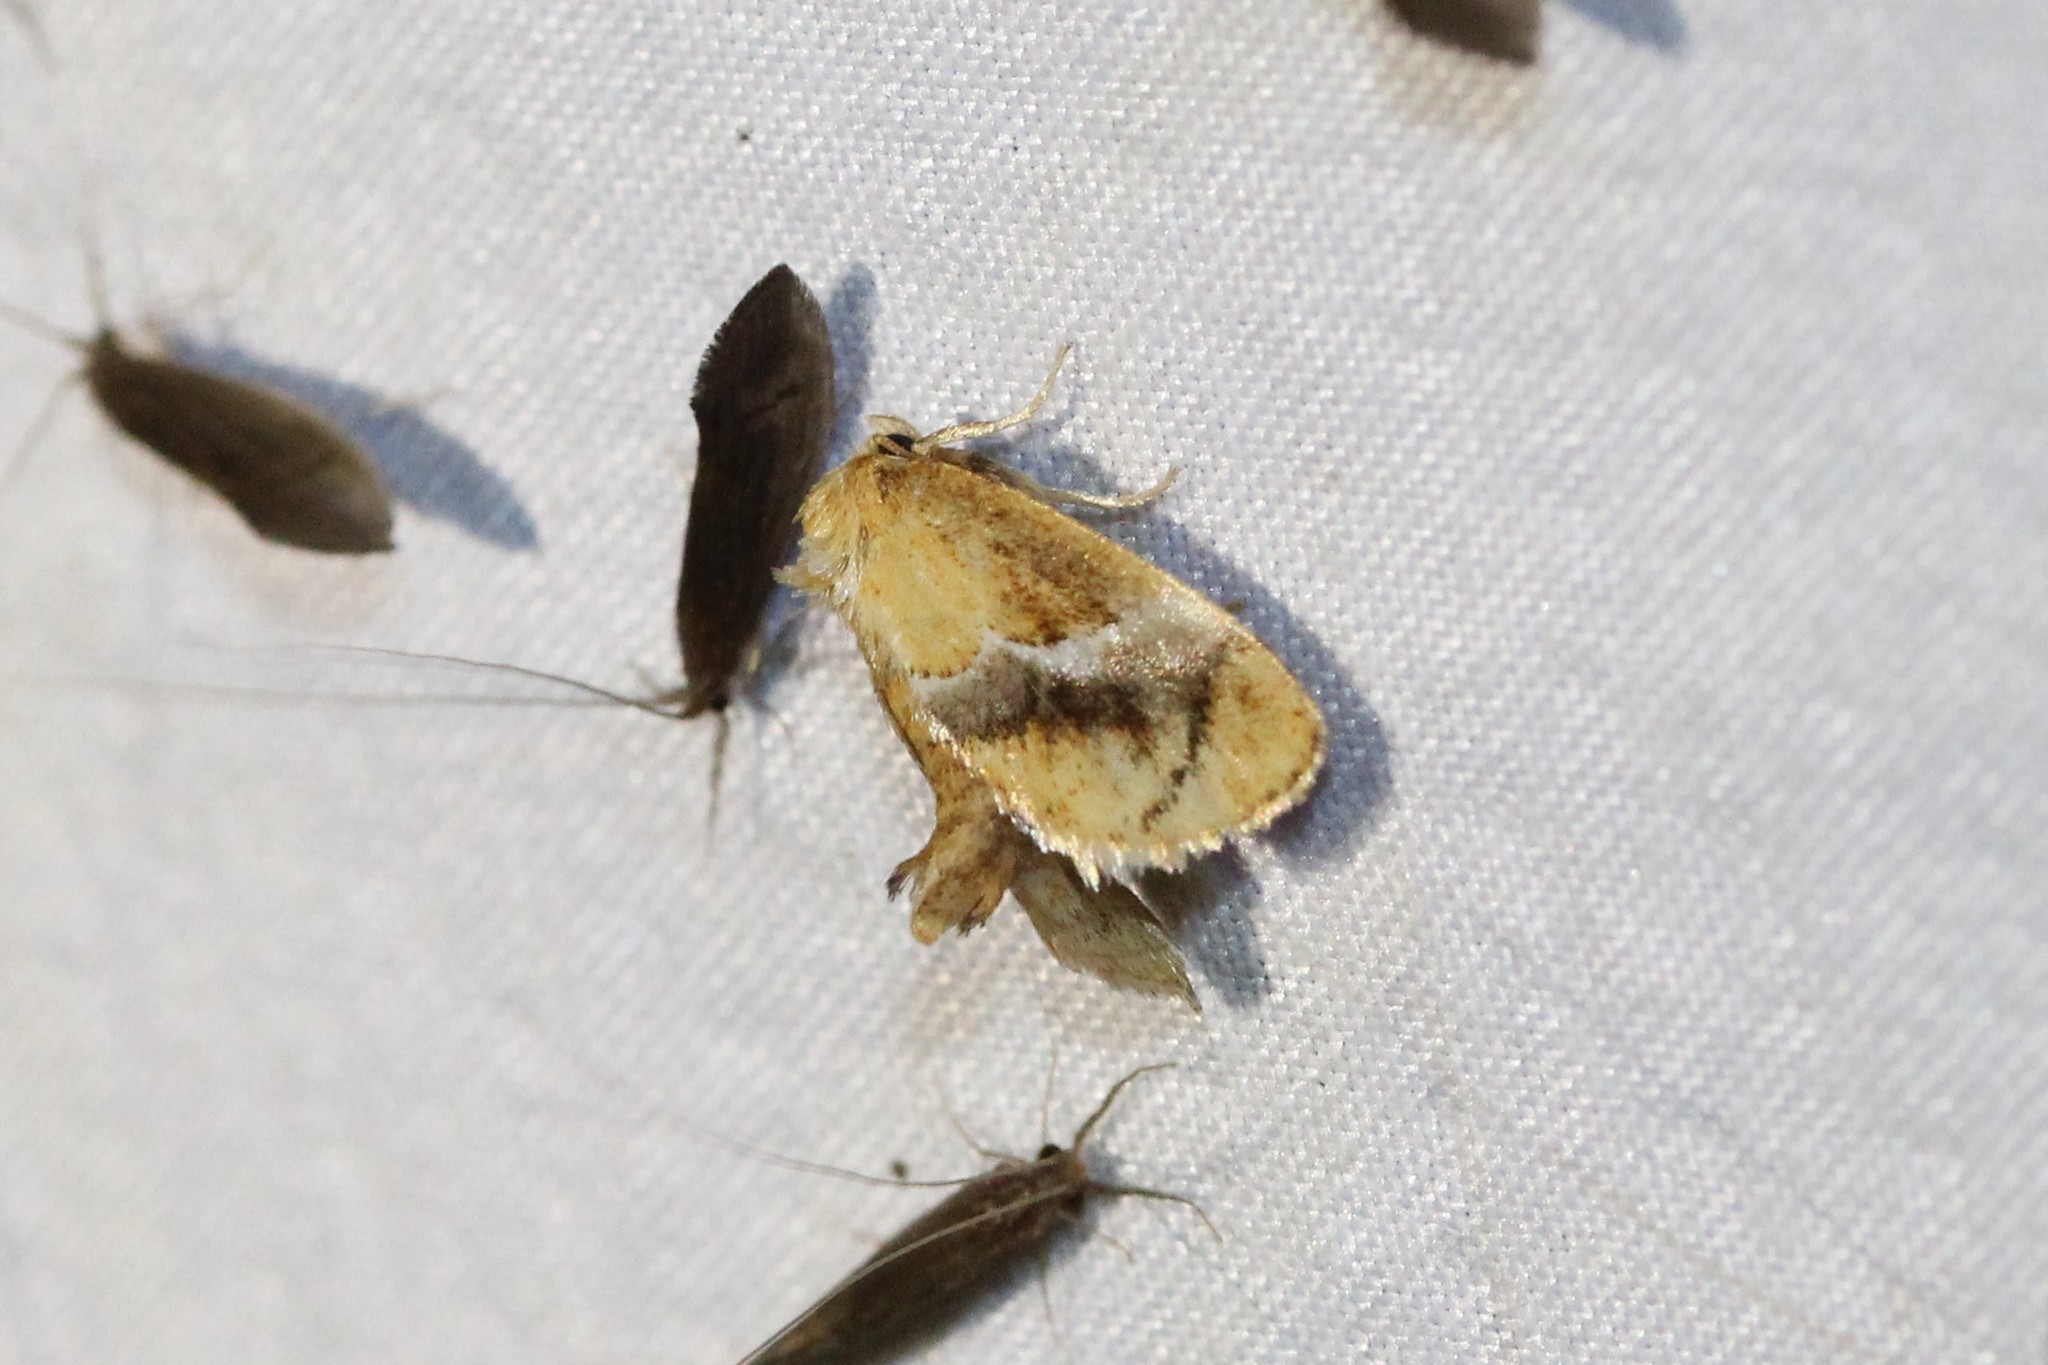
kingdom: Animalia
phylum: Arthropoda
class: Insecta
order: Lepidoptera
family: Limacodidae
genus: Lithacodes
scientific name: Lithacodes fasciola
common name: Yellow-shouldered slug moth
